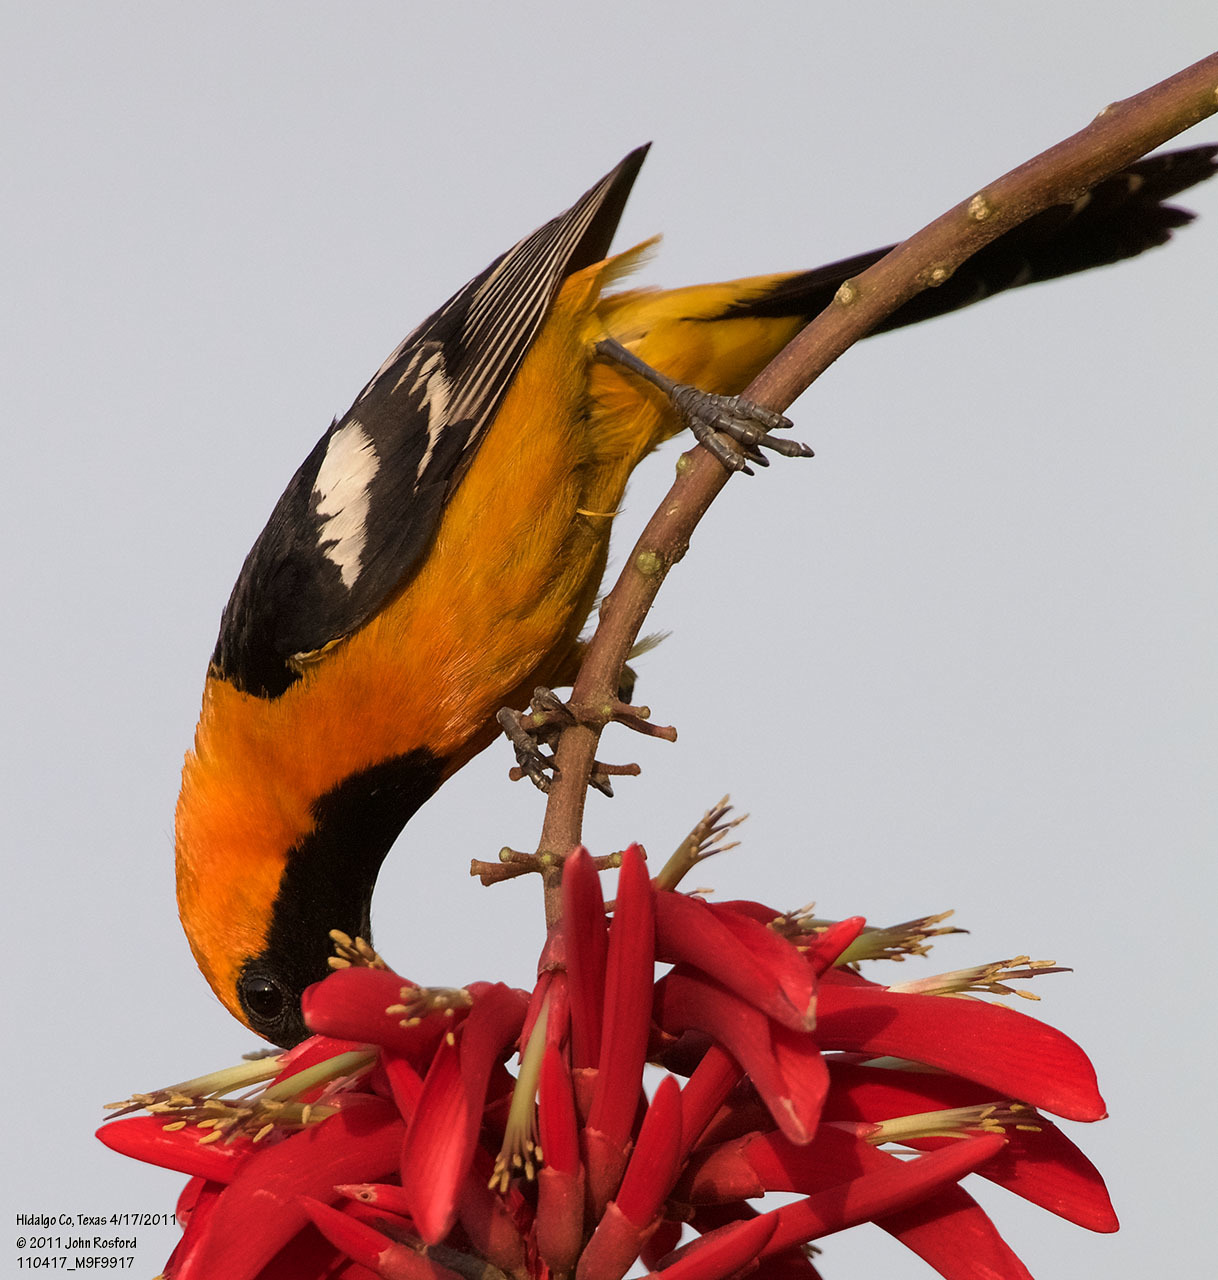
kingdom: Animalia
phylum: Chordata
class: Aves
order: Passeriformes
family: Icteridae
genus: Icterus
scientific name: Icterus cucullatus
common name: Hooded oriole
